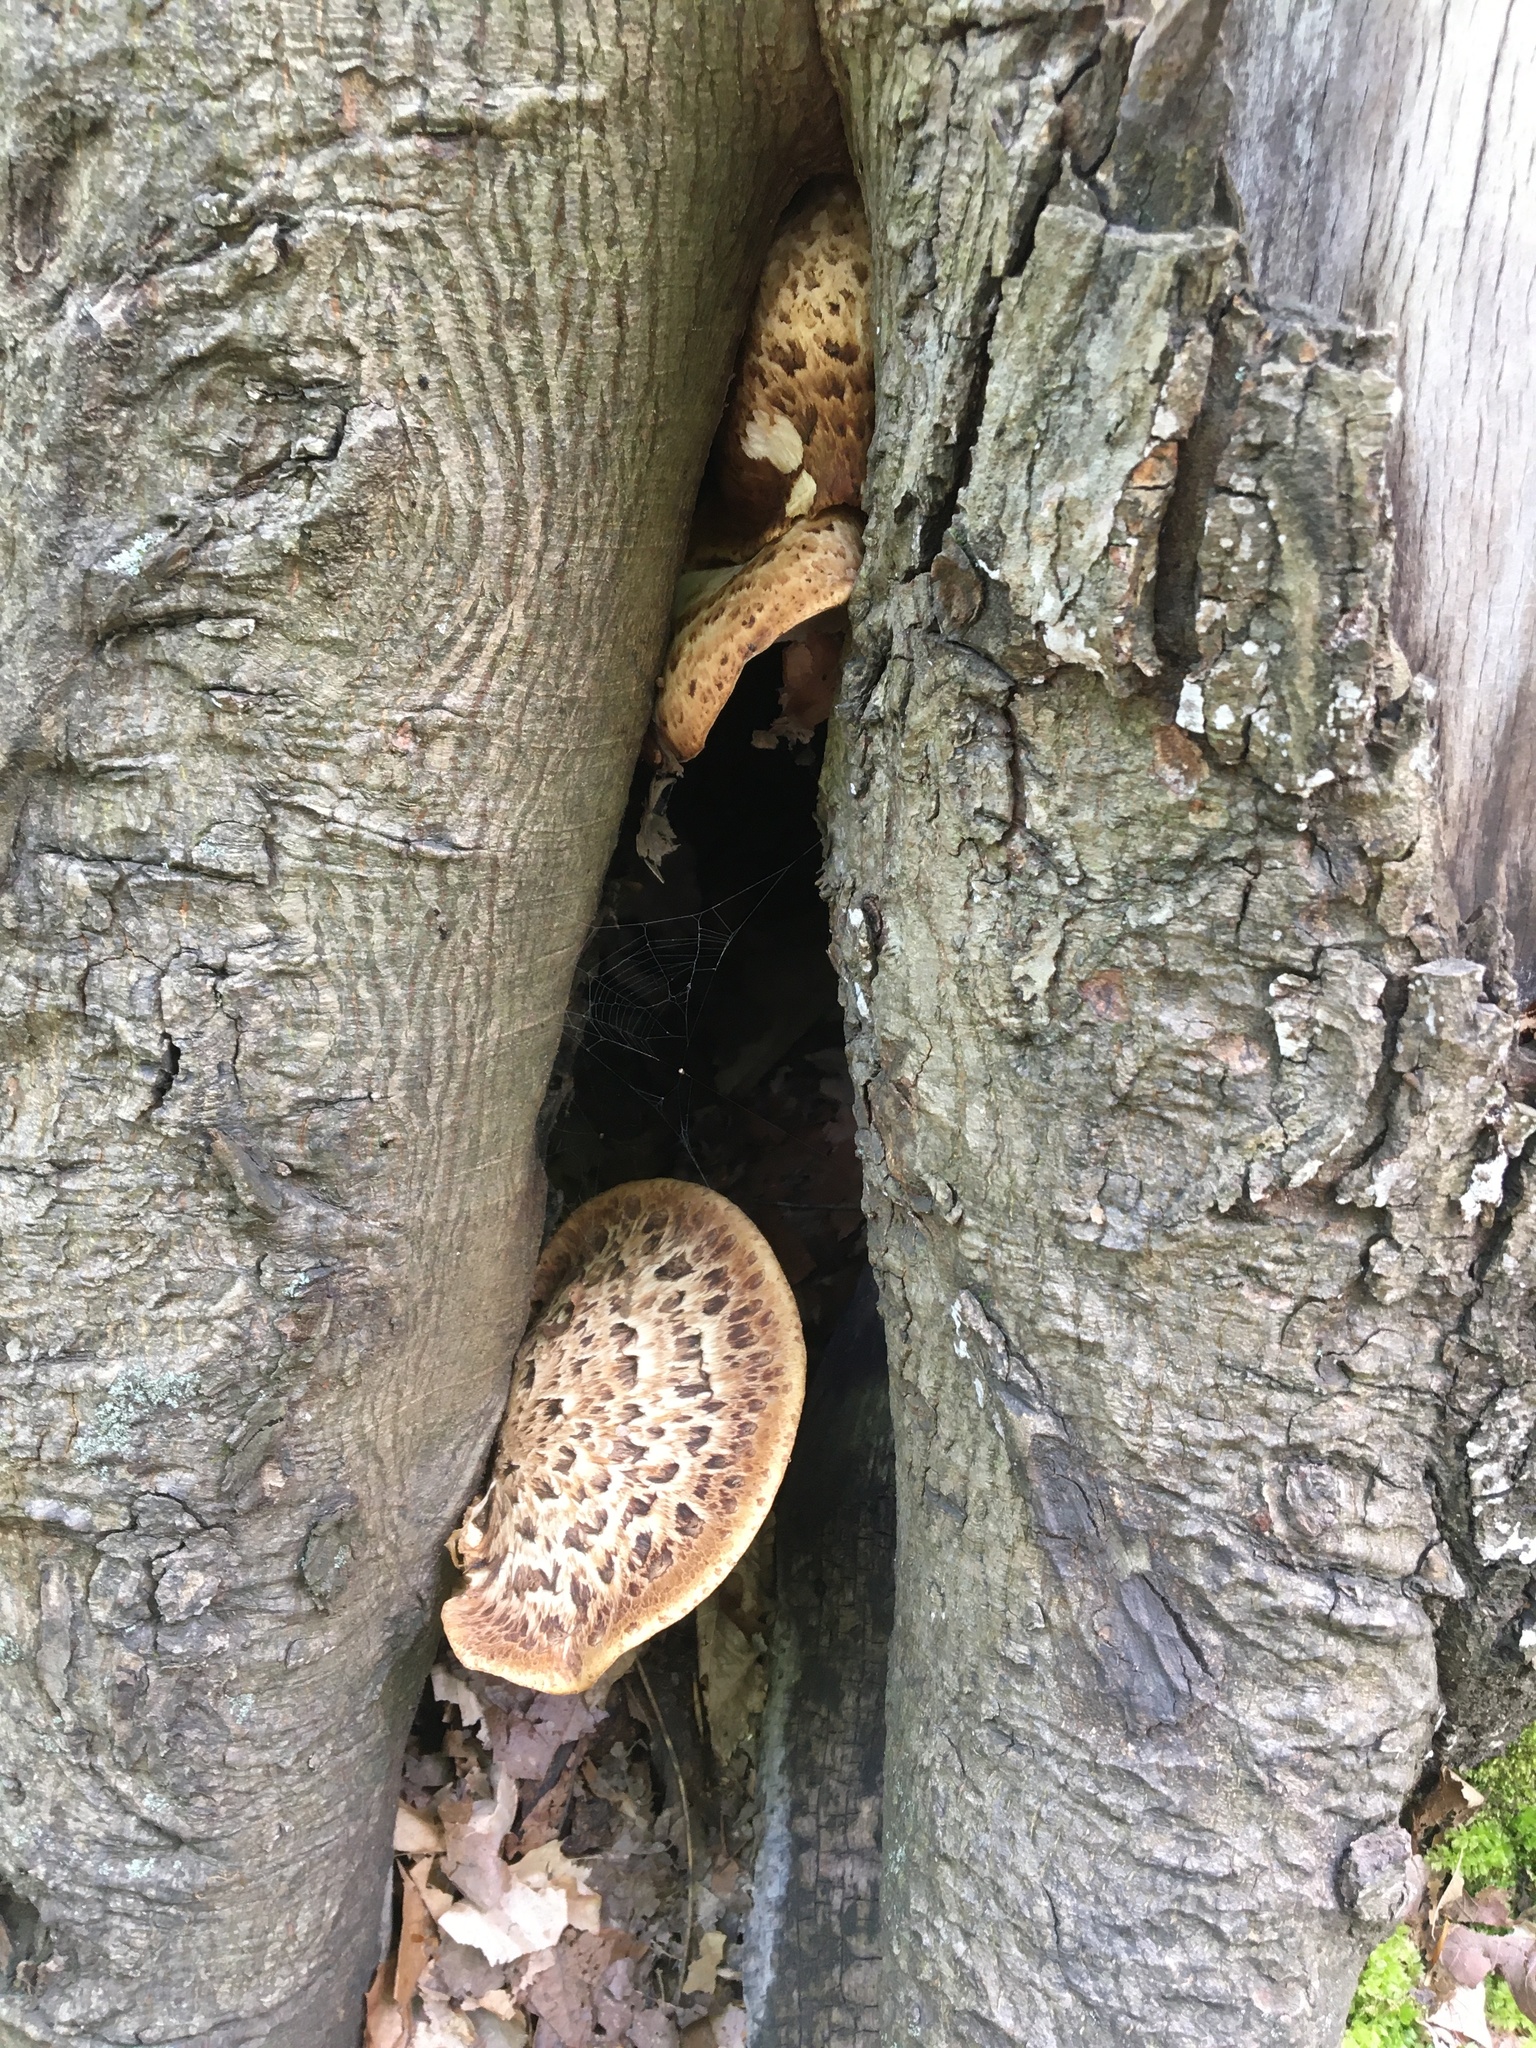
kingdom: Fungi
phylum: Basidiomycota
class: Agaricomycetes
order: Polyporales
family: Polyporaceae
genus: Cerioporus
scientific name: Cerioporus squamosus
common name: Dryad's saddle
